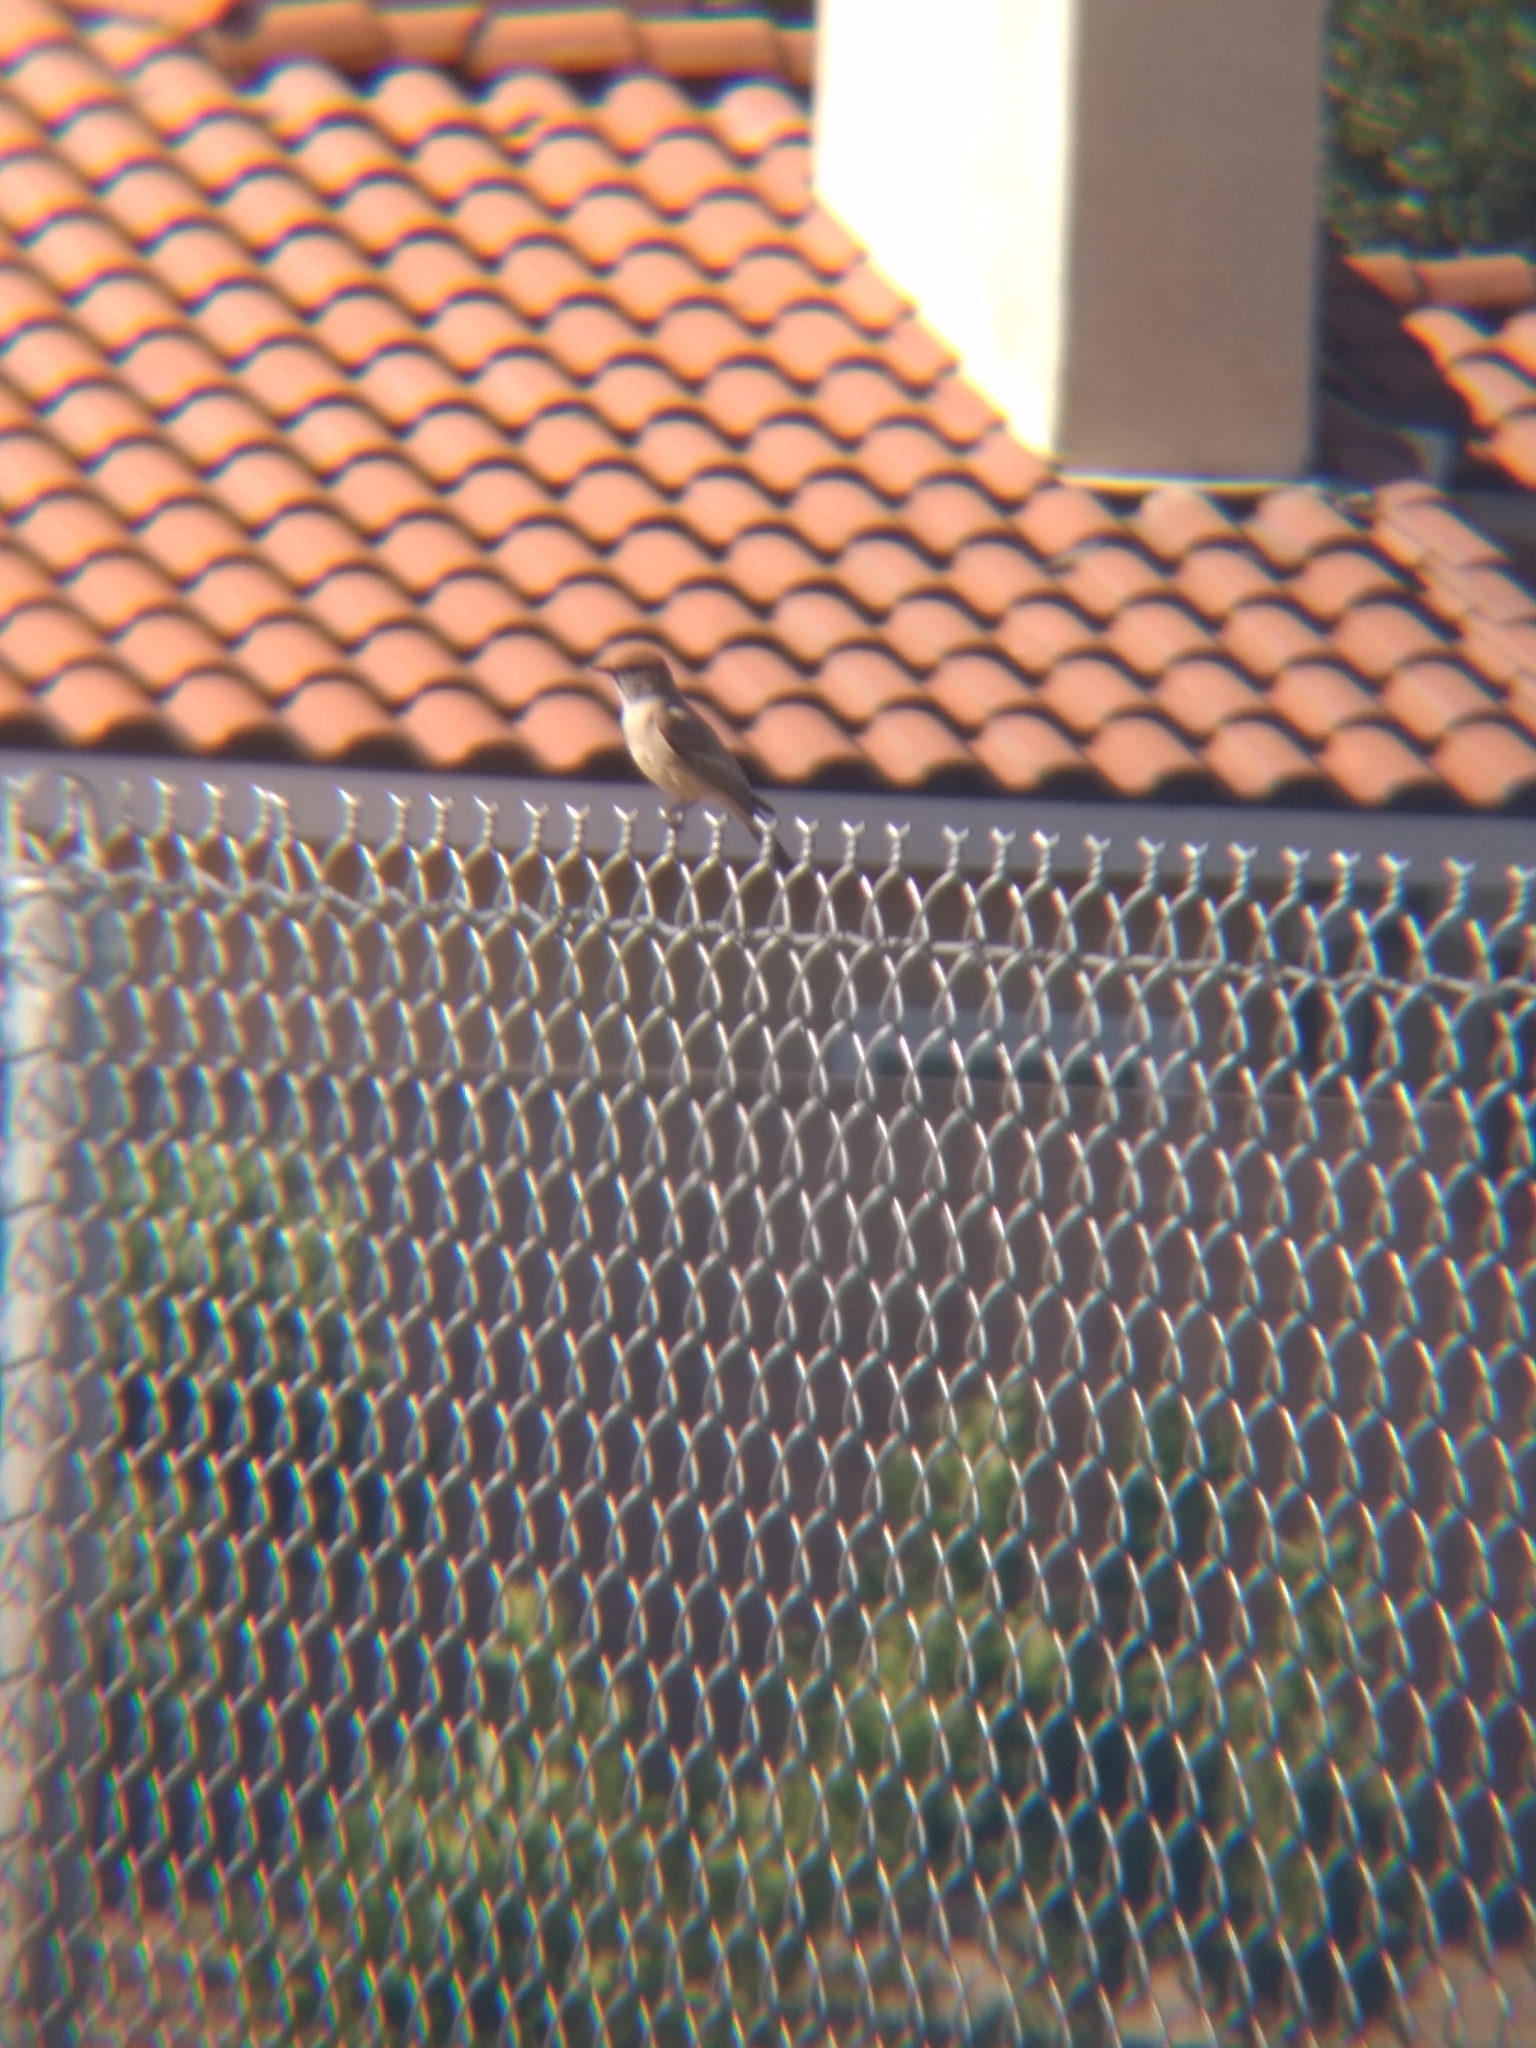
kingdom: Animalia
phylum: Chordata
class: Aves
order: Passeriformes
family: Tyrannidae
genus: Sayornis
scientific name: Sayornis saya
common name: Say's phoebe
